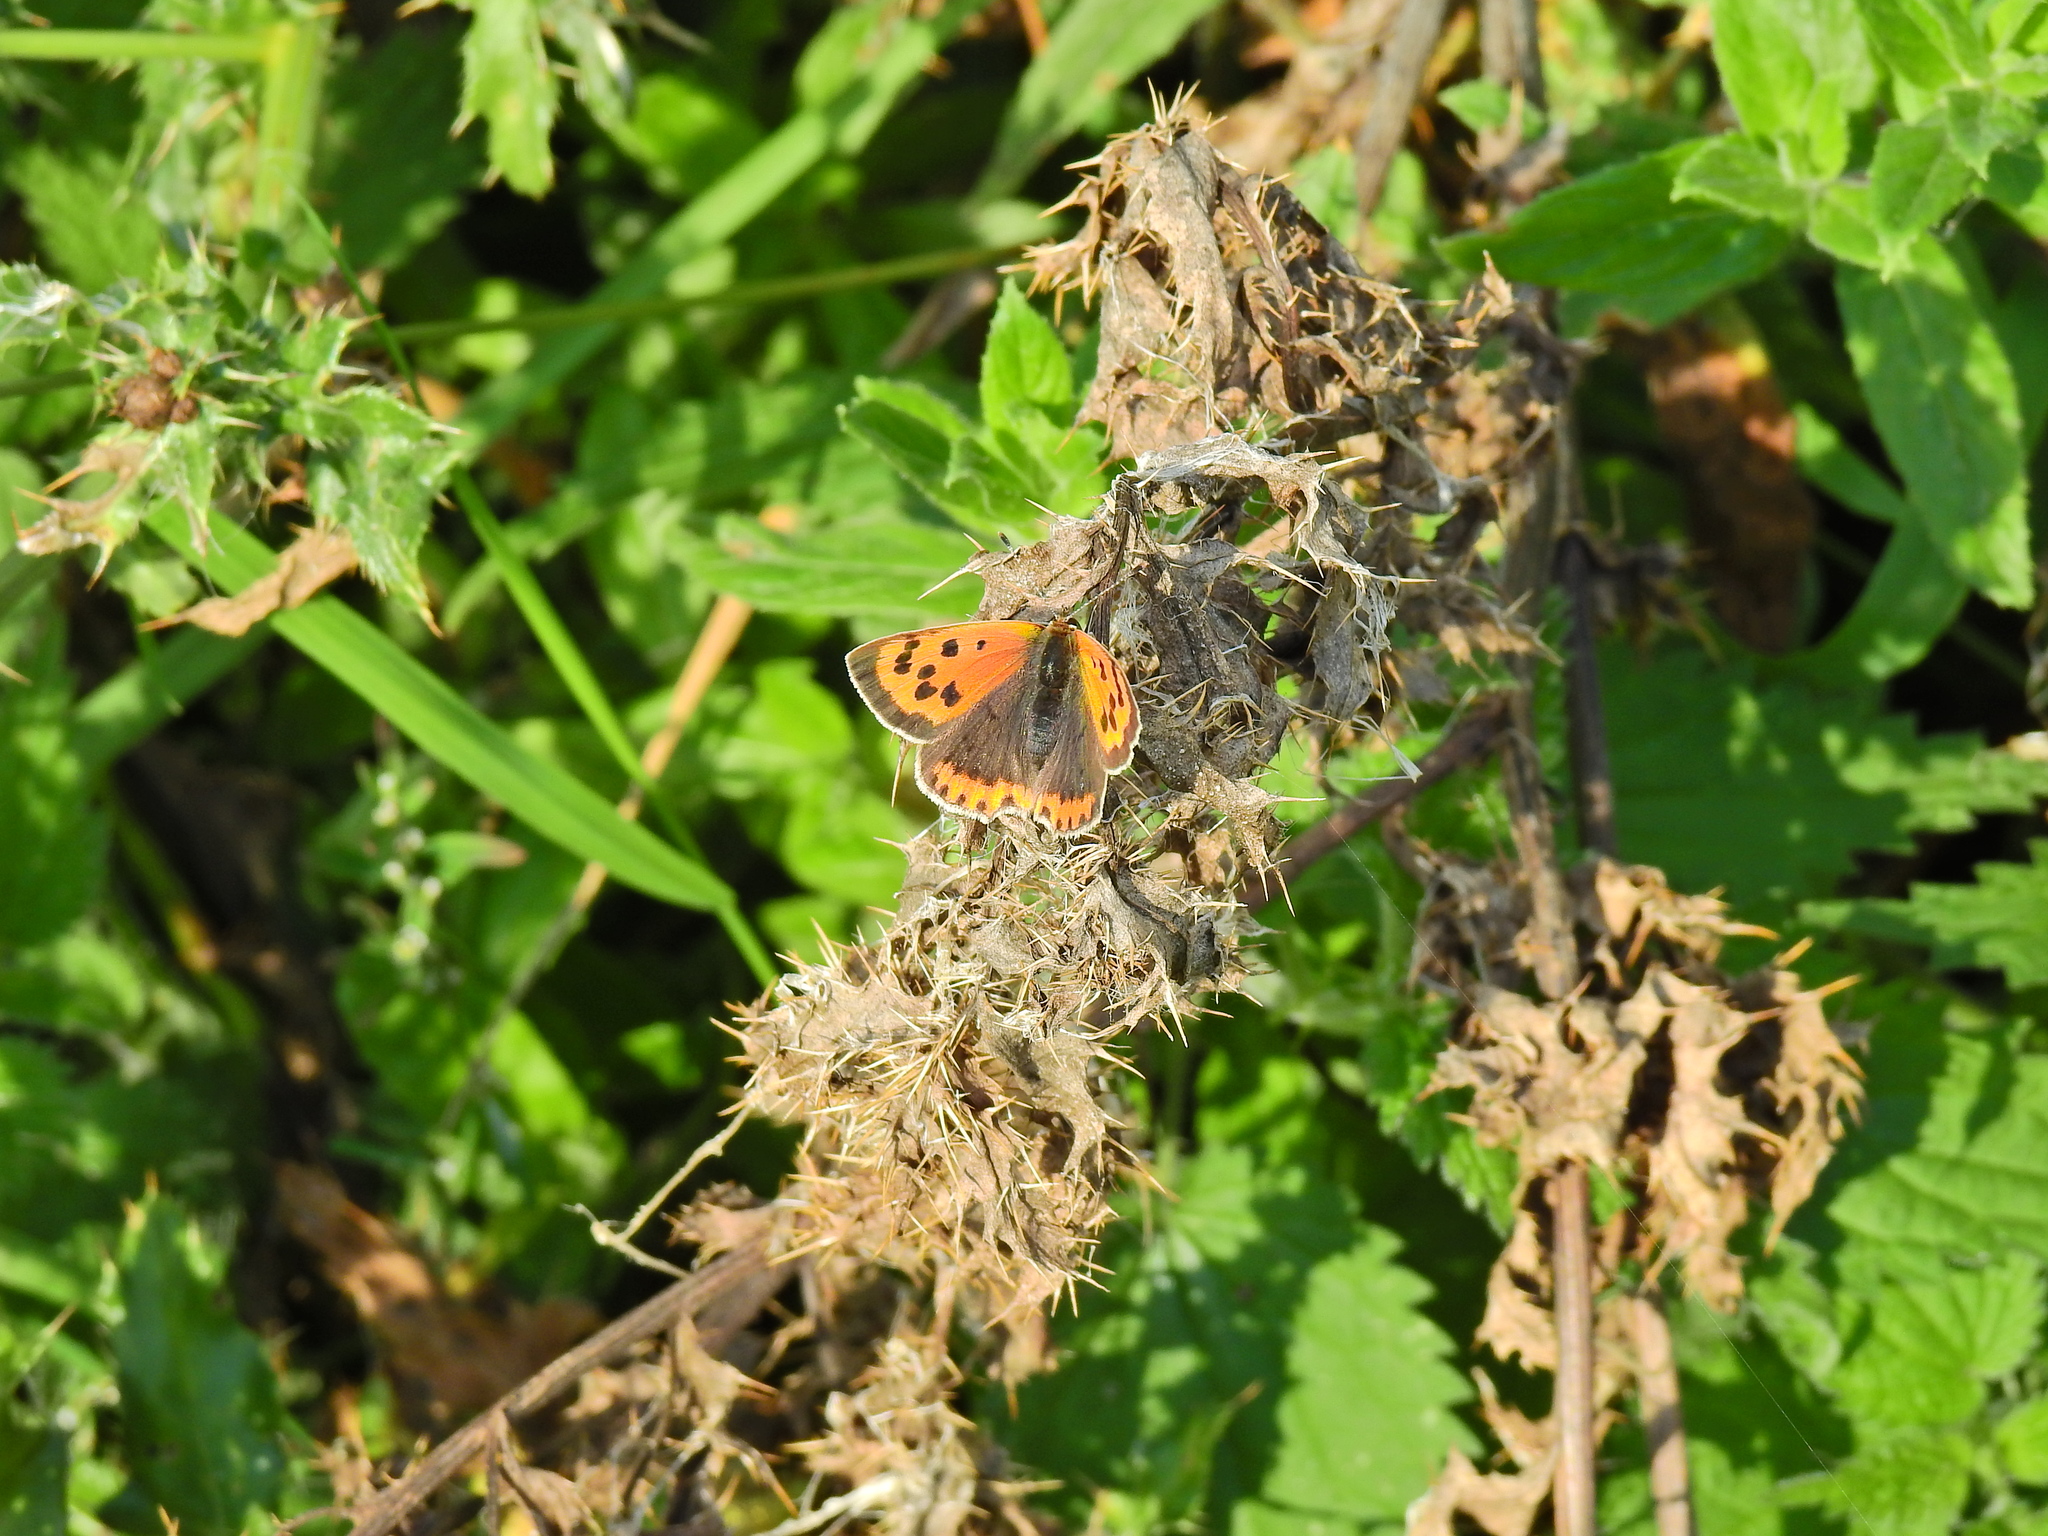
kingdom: Animalia
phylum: Arthropoda
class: Insecta
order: Lepidoptera
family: Lycaenidae
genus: Lycaena
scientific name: Lycaena phlaeas
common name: Small copper
